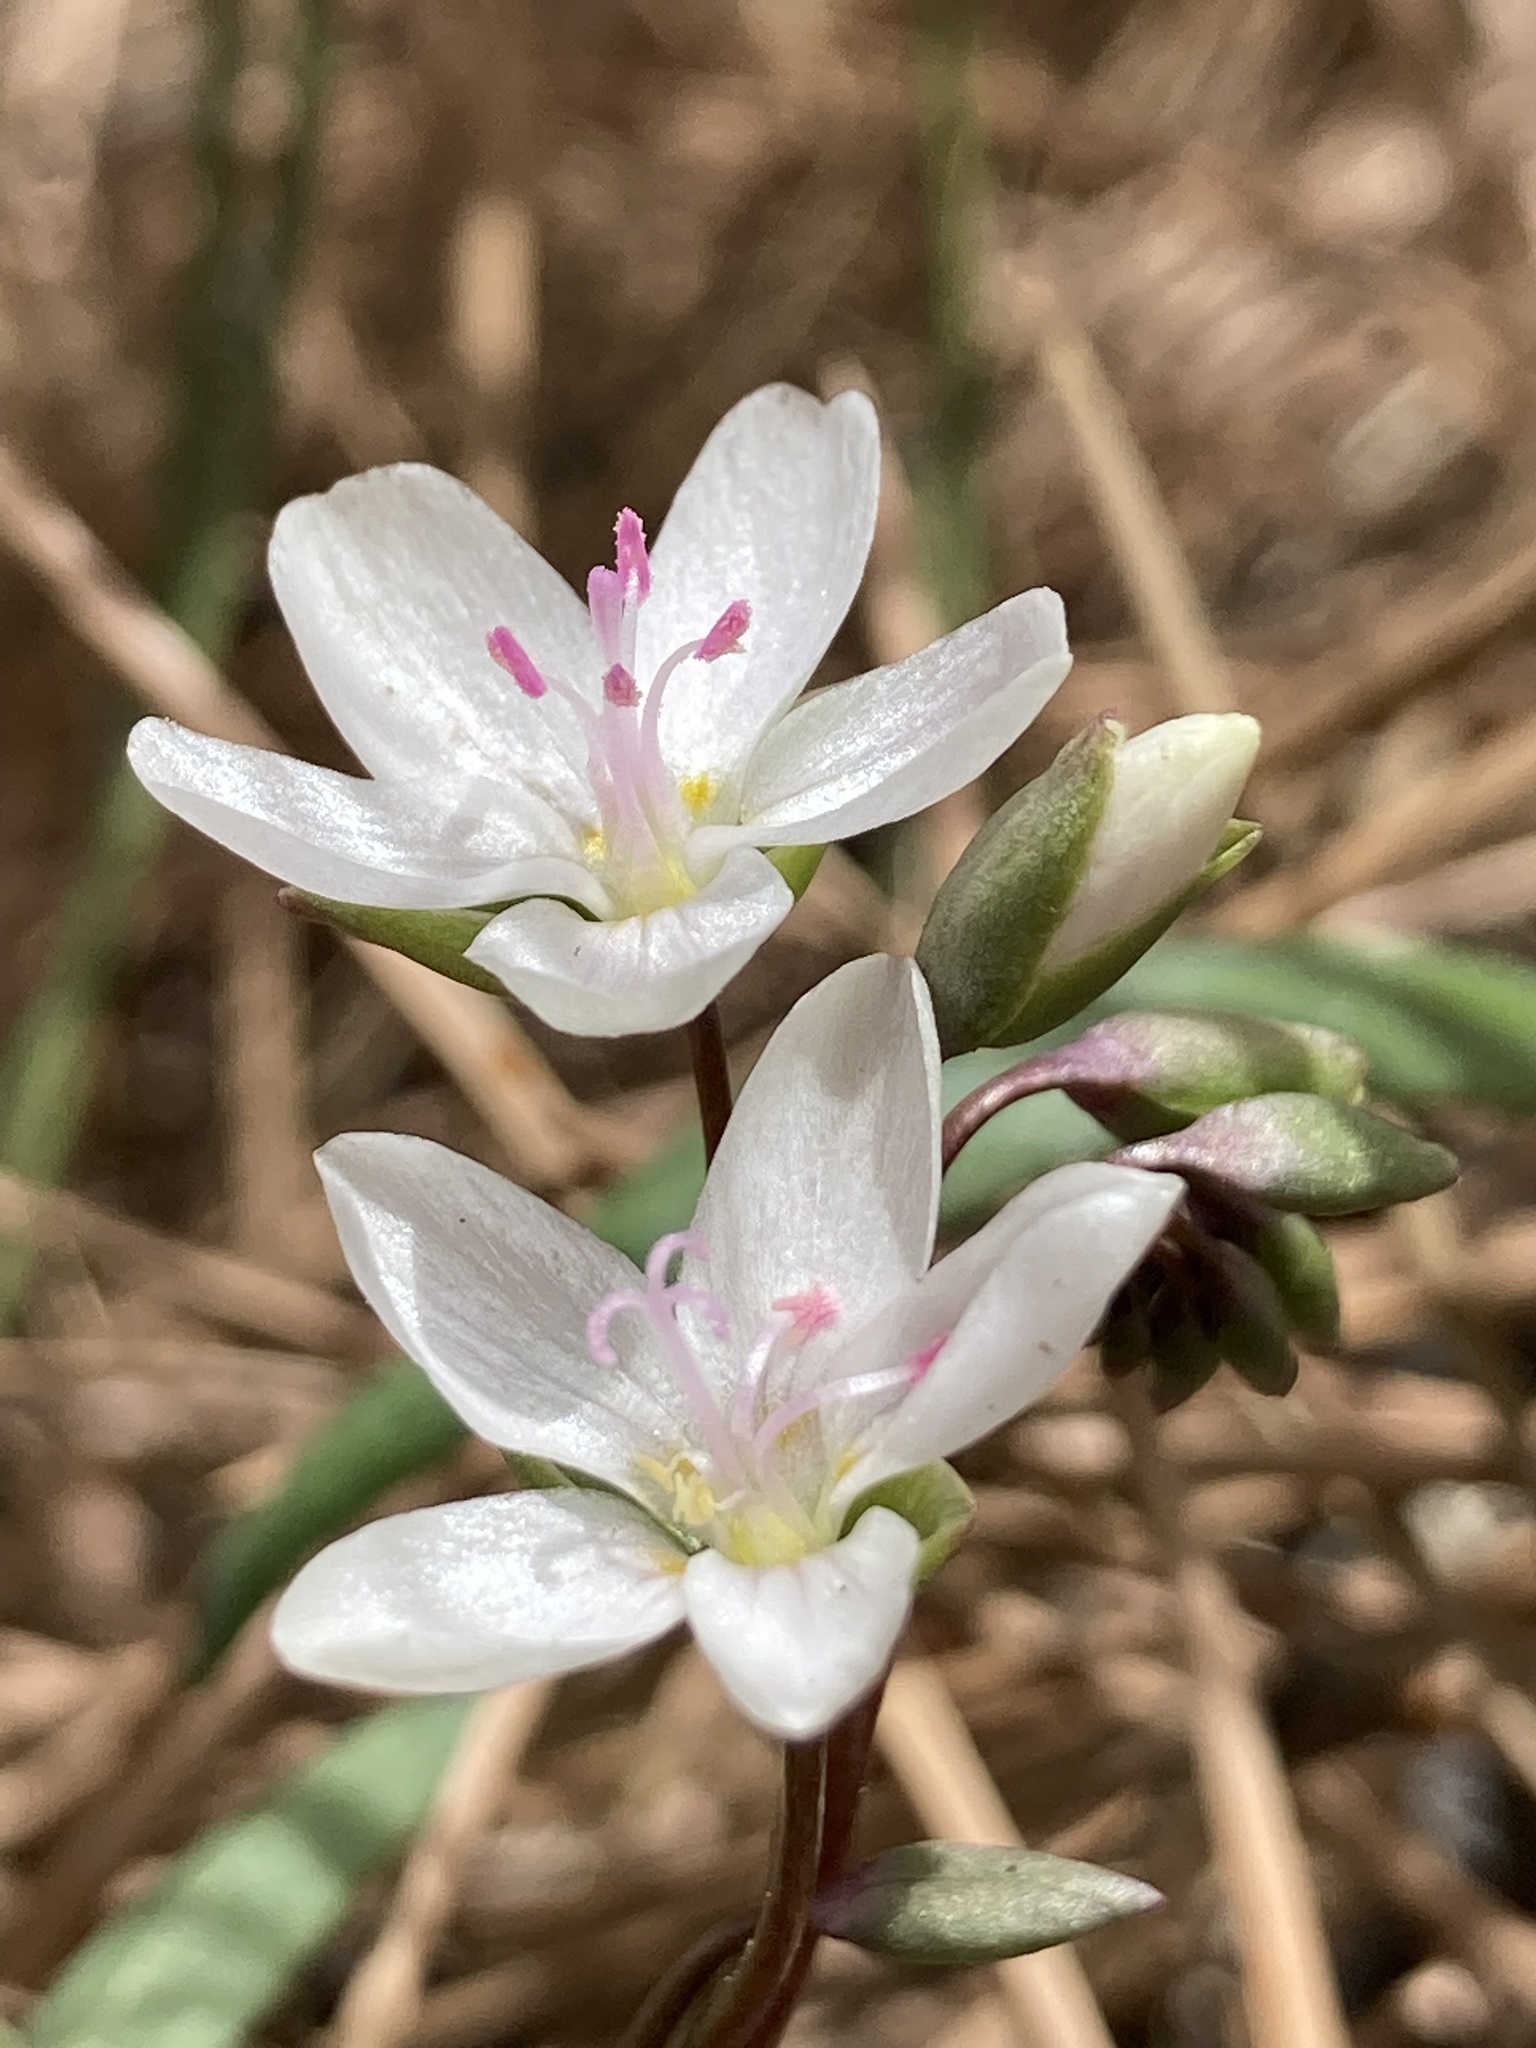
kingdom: Plantae
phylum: Tracheophyta
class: Magnoliopsida
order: Caryophyllales
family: Montiaceae
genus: Claytonia
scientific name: Claytonia rosea
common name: Rocky mountain spring-beauty
